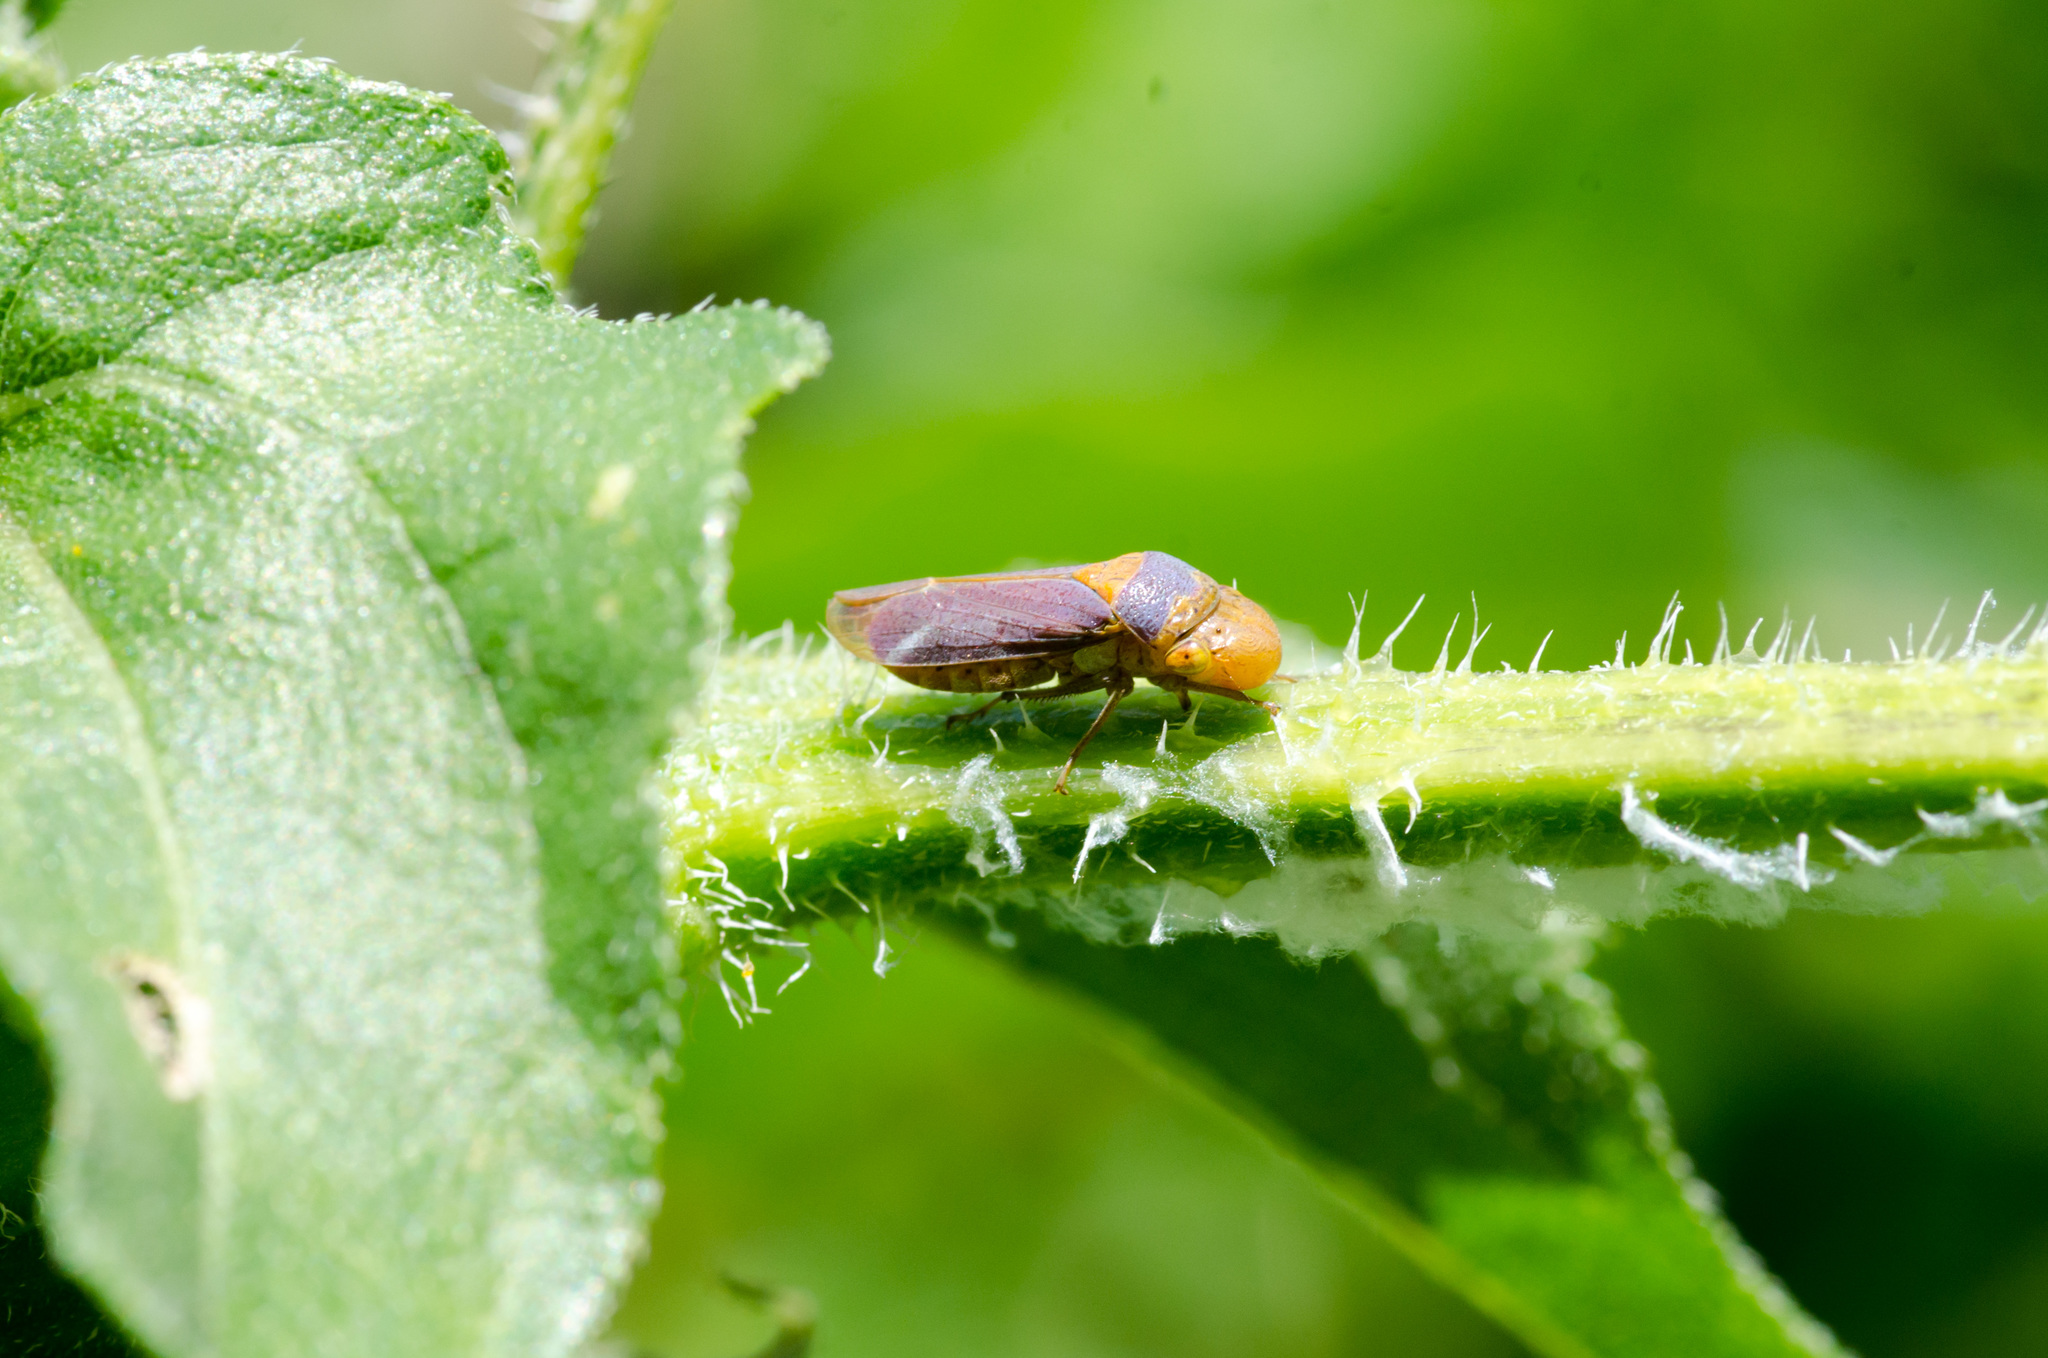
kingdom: Animalia
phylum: Arthropoda
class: Insecta
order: Hemiptera
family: Cicadellidae
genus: Oncometopia
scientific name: Oncometopia hamiltoni
